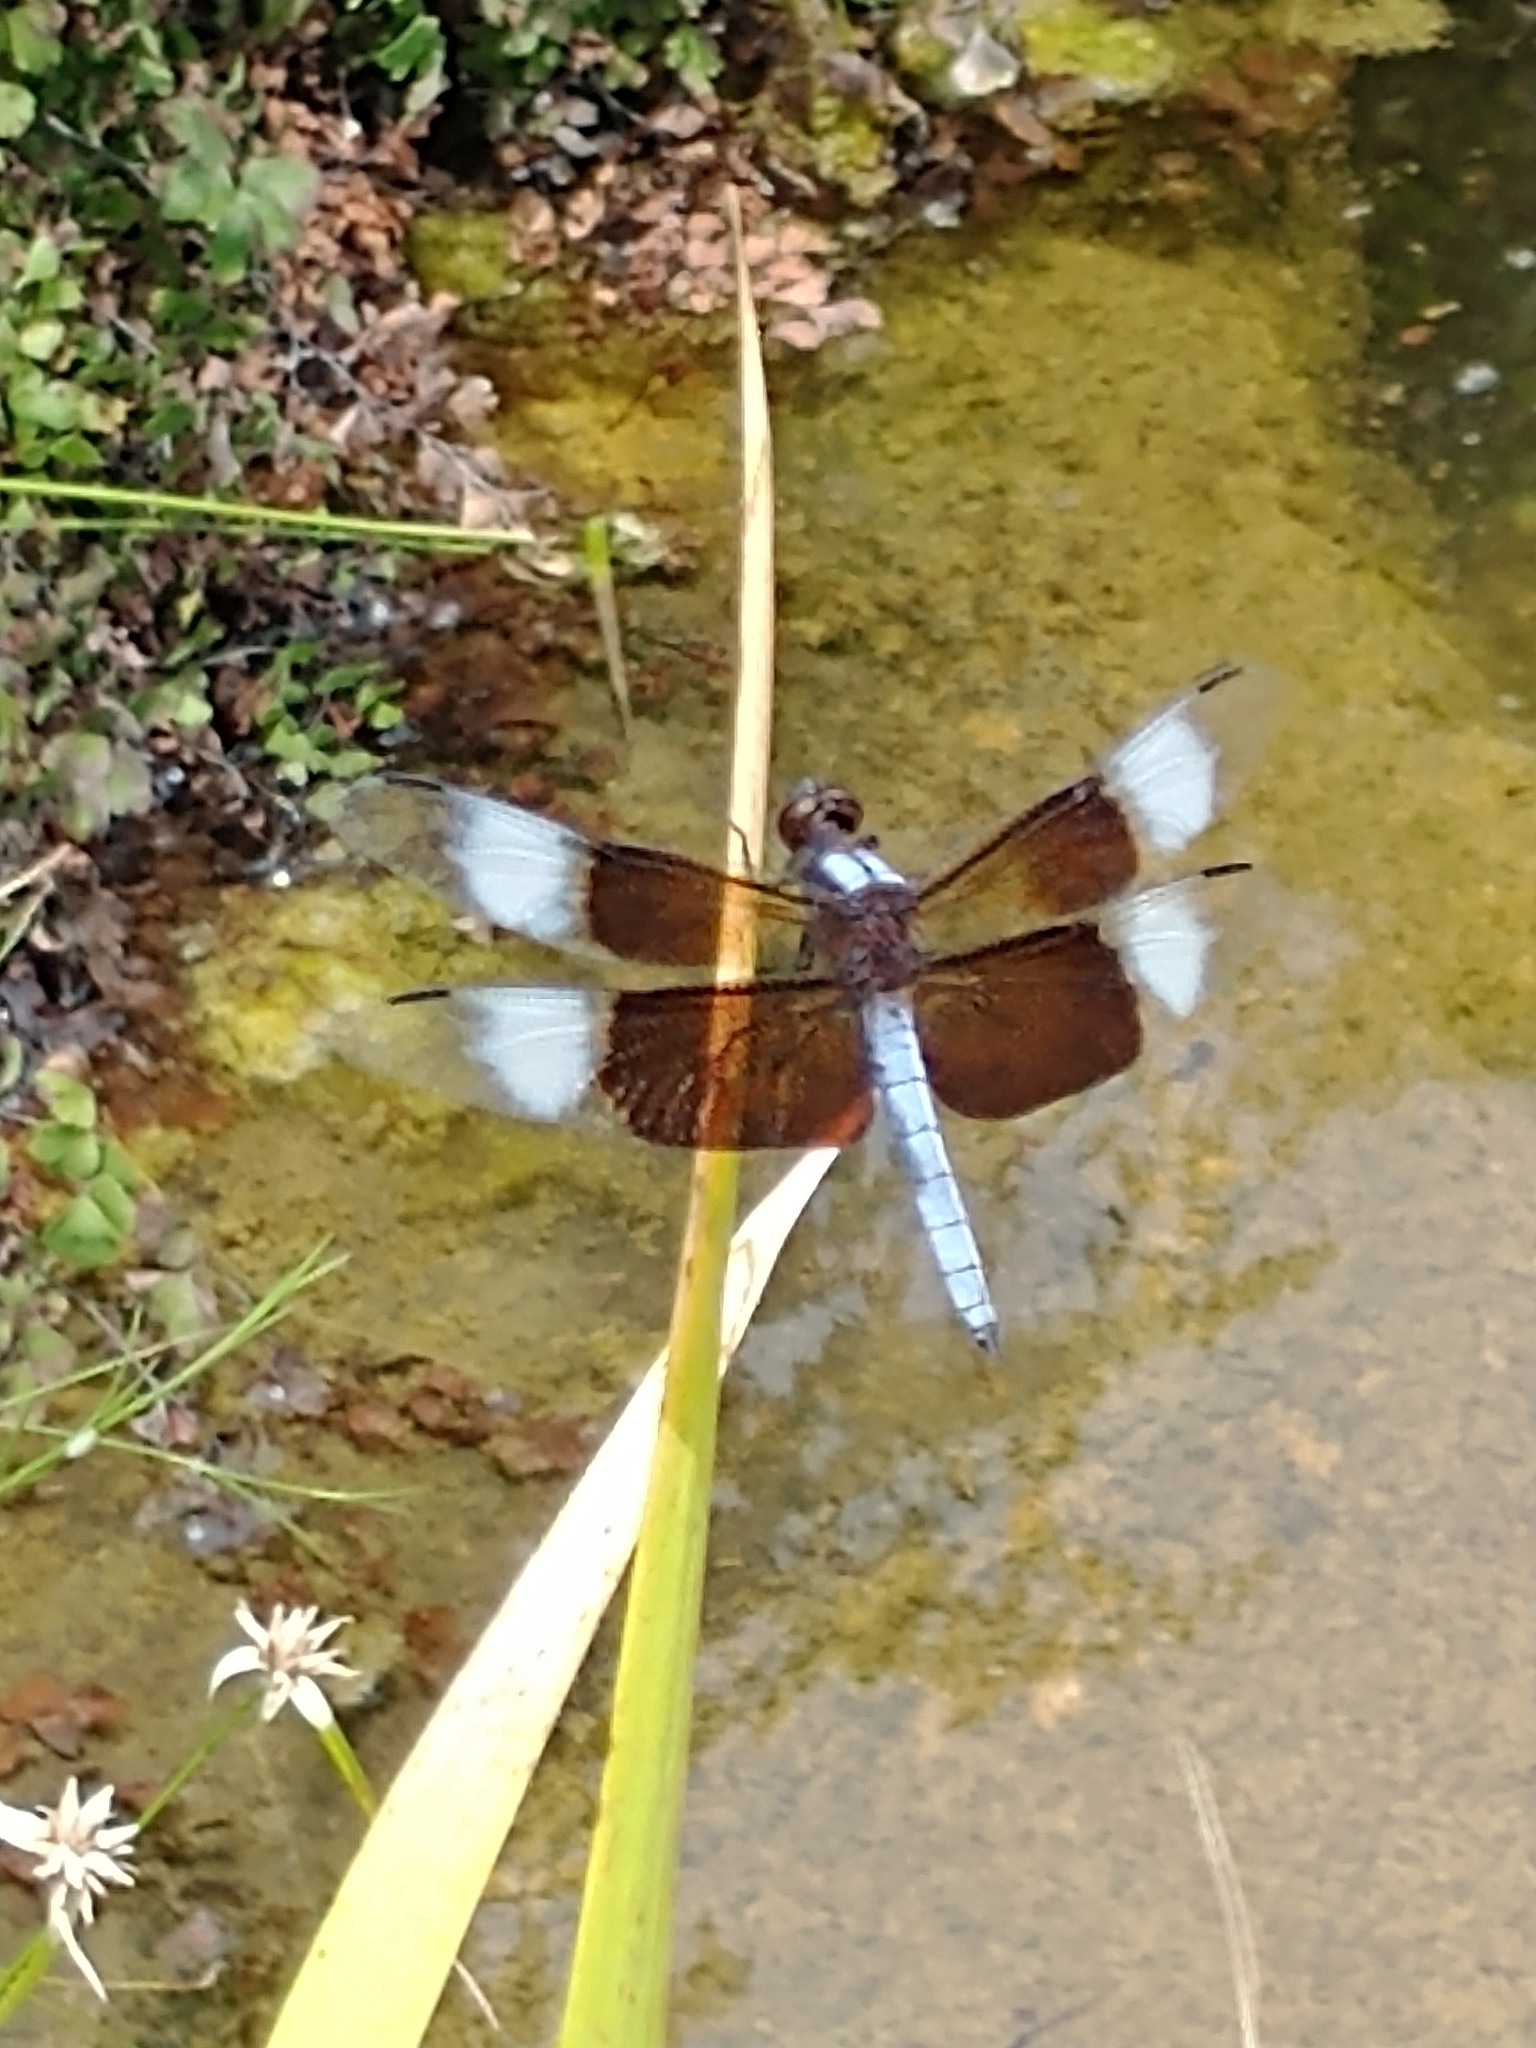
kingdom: Animalia
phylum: Arthropoda
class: Insecta
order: Odonata
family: Libellulidae
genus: Libellula
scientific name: Libellula luctuosa
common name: Widow skimmer
